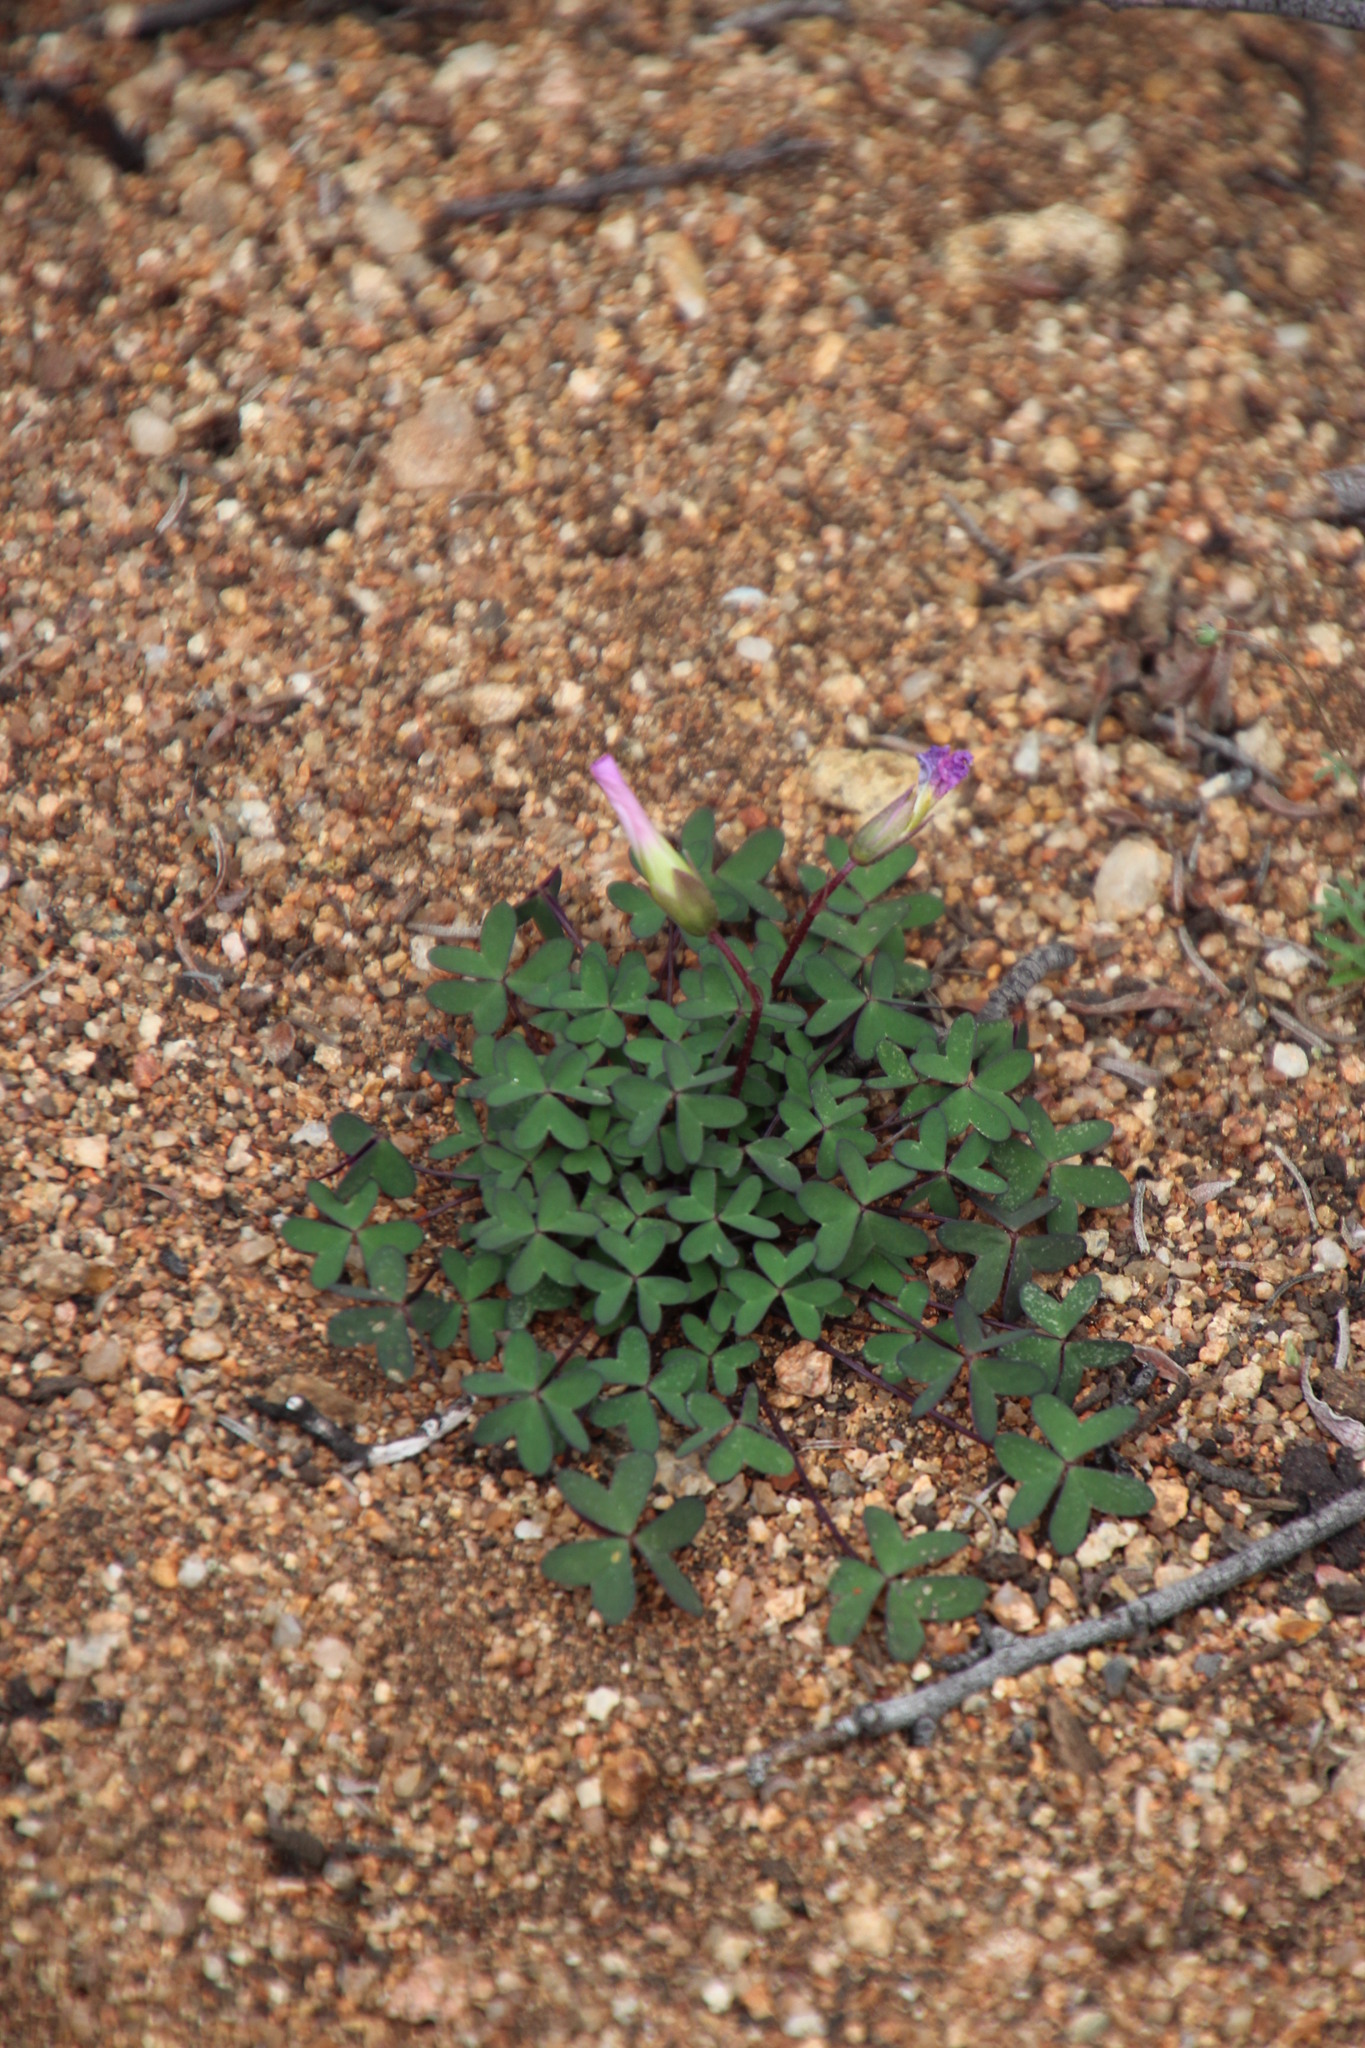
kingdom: Plantae
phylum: Tracheophyta
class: Magnoliopsida
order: Oxalidales
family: Oxalidaceae
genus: Oxalis
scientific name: Oxalis comosa
